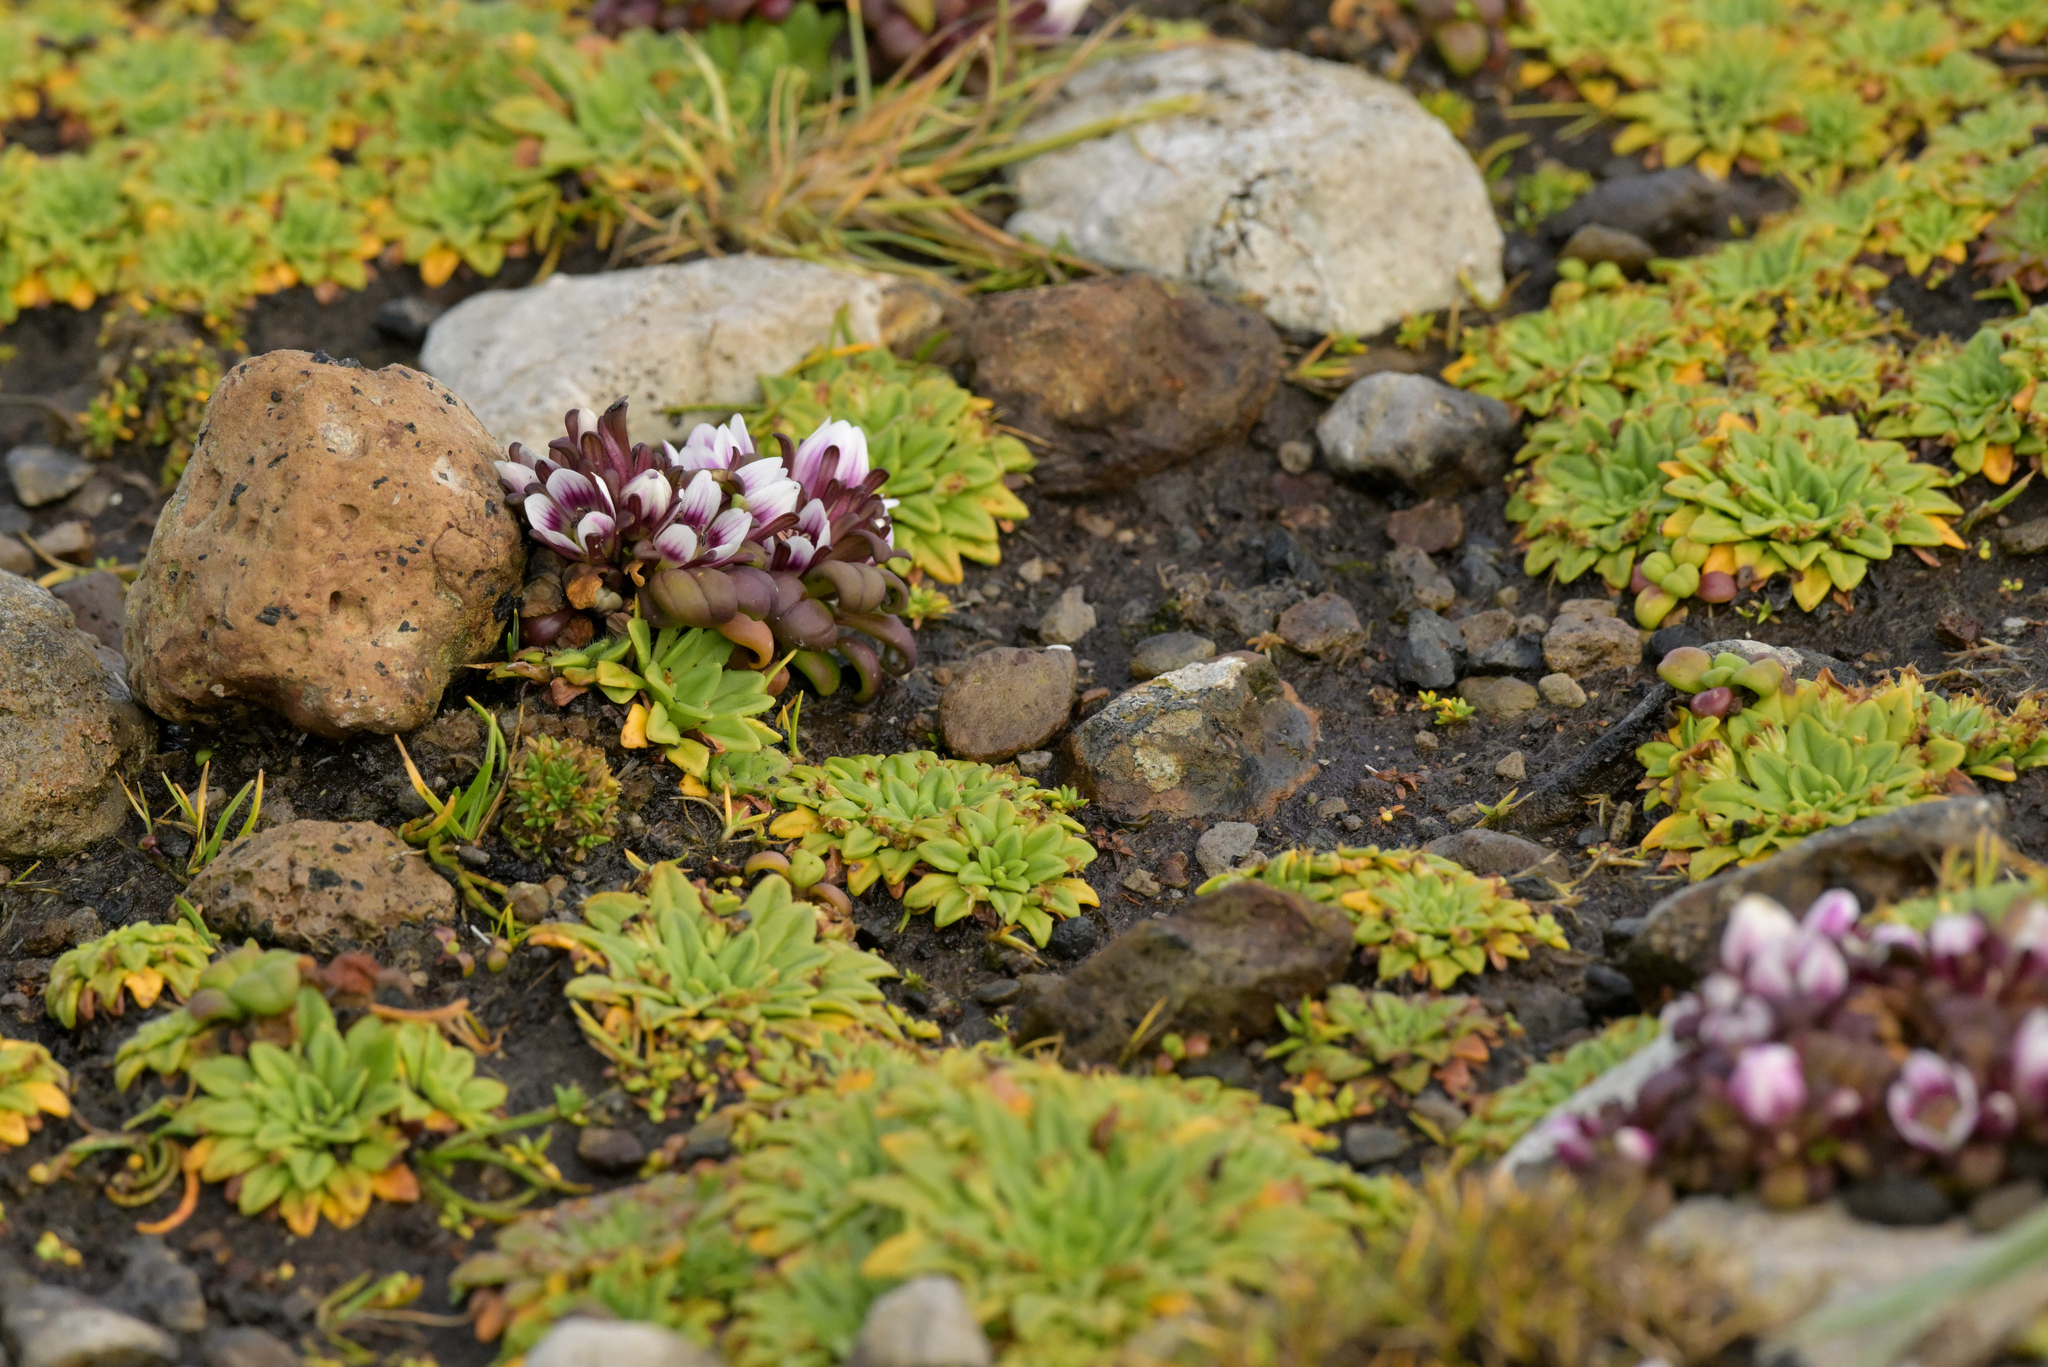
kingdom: Plantae
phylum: Tracheophyta
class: Magnoliopsida
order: Lamiales
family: Plantaginaceae
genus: Plantago
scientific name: Plantago brownii
